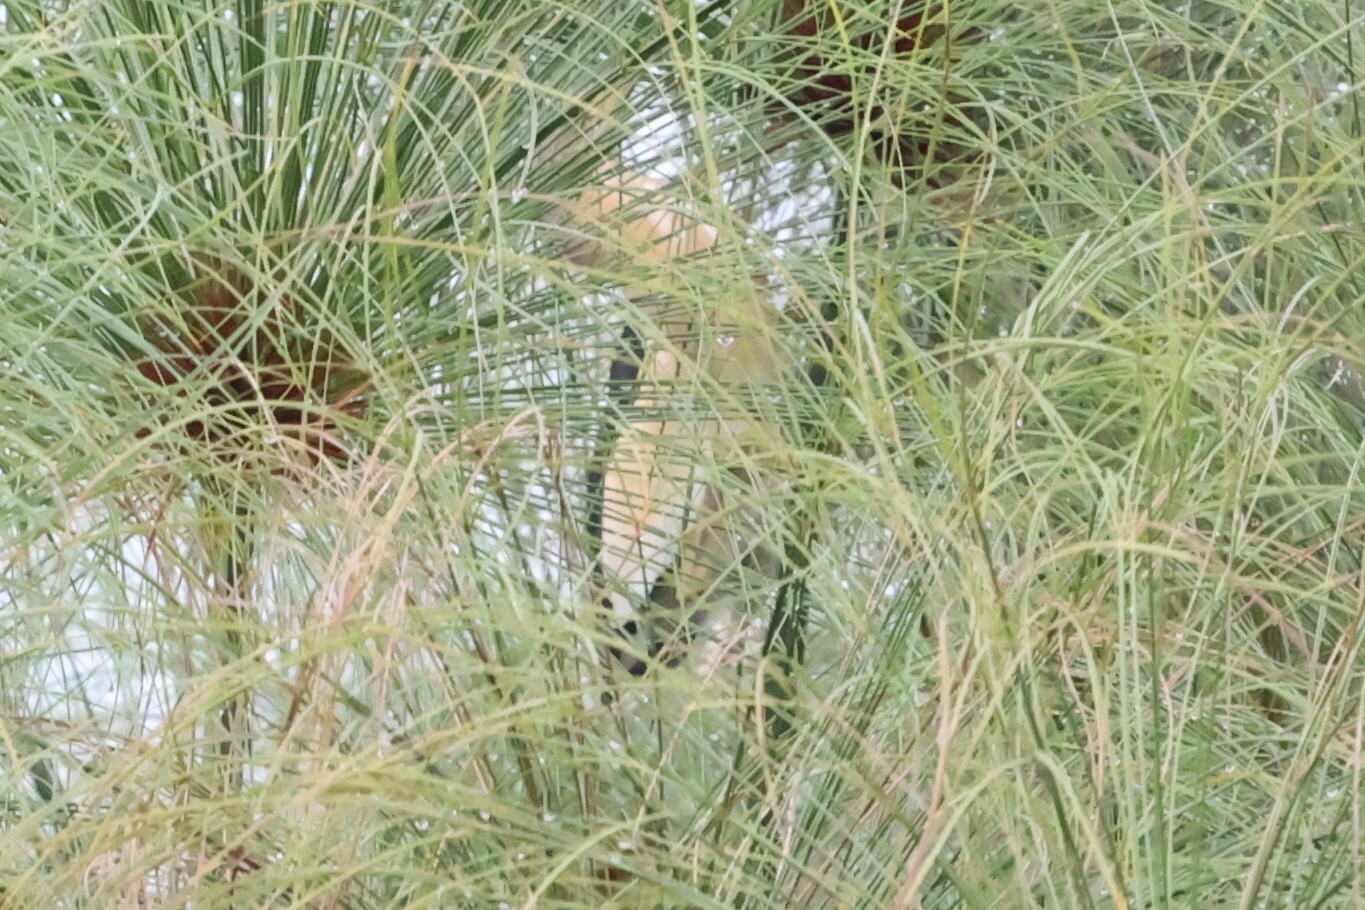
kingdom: Animalia
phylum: Chordata
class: Aves
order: Pelecaniformes
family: Ardeidae
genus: Ixobrychus
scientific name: Ixobrychus minutus
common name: Little bittern
